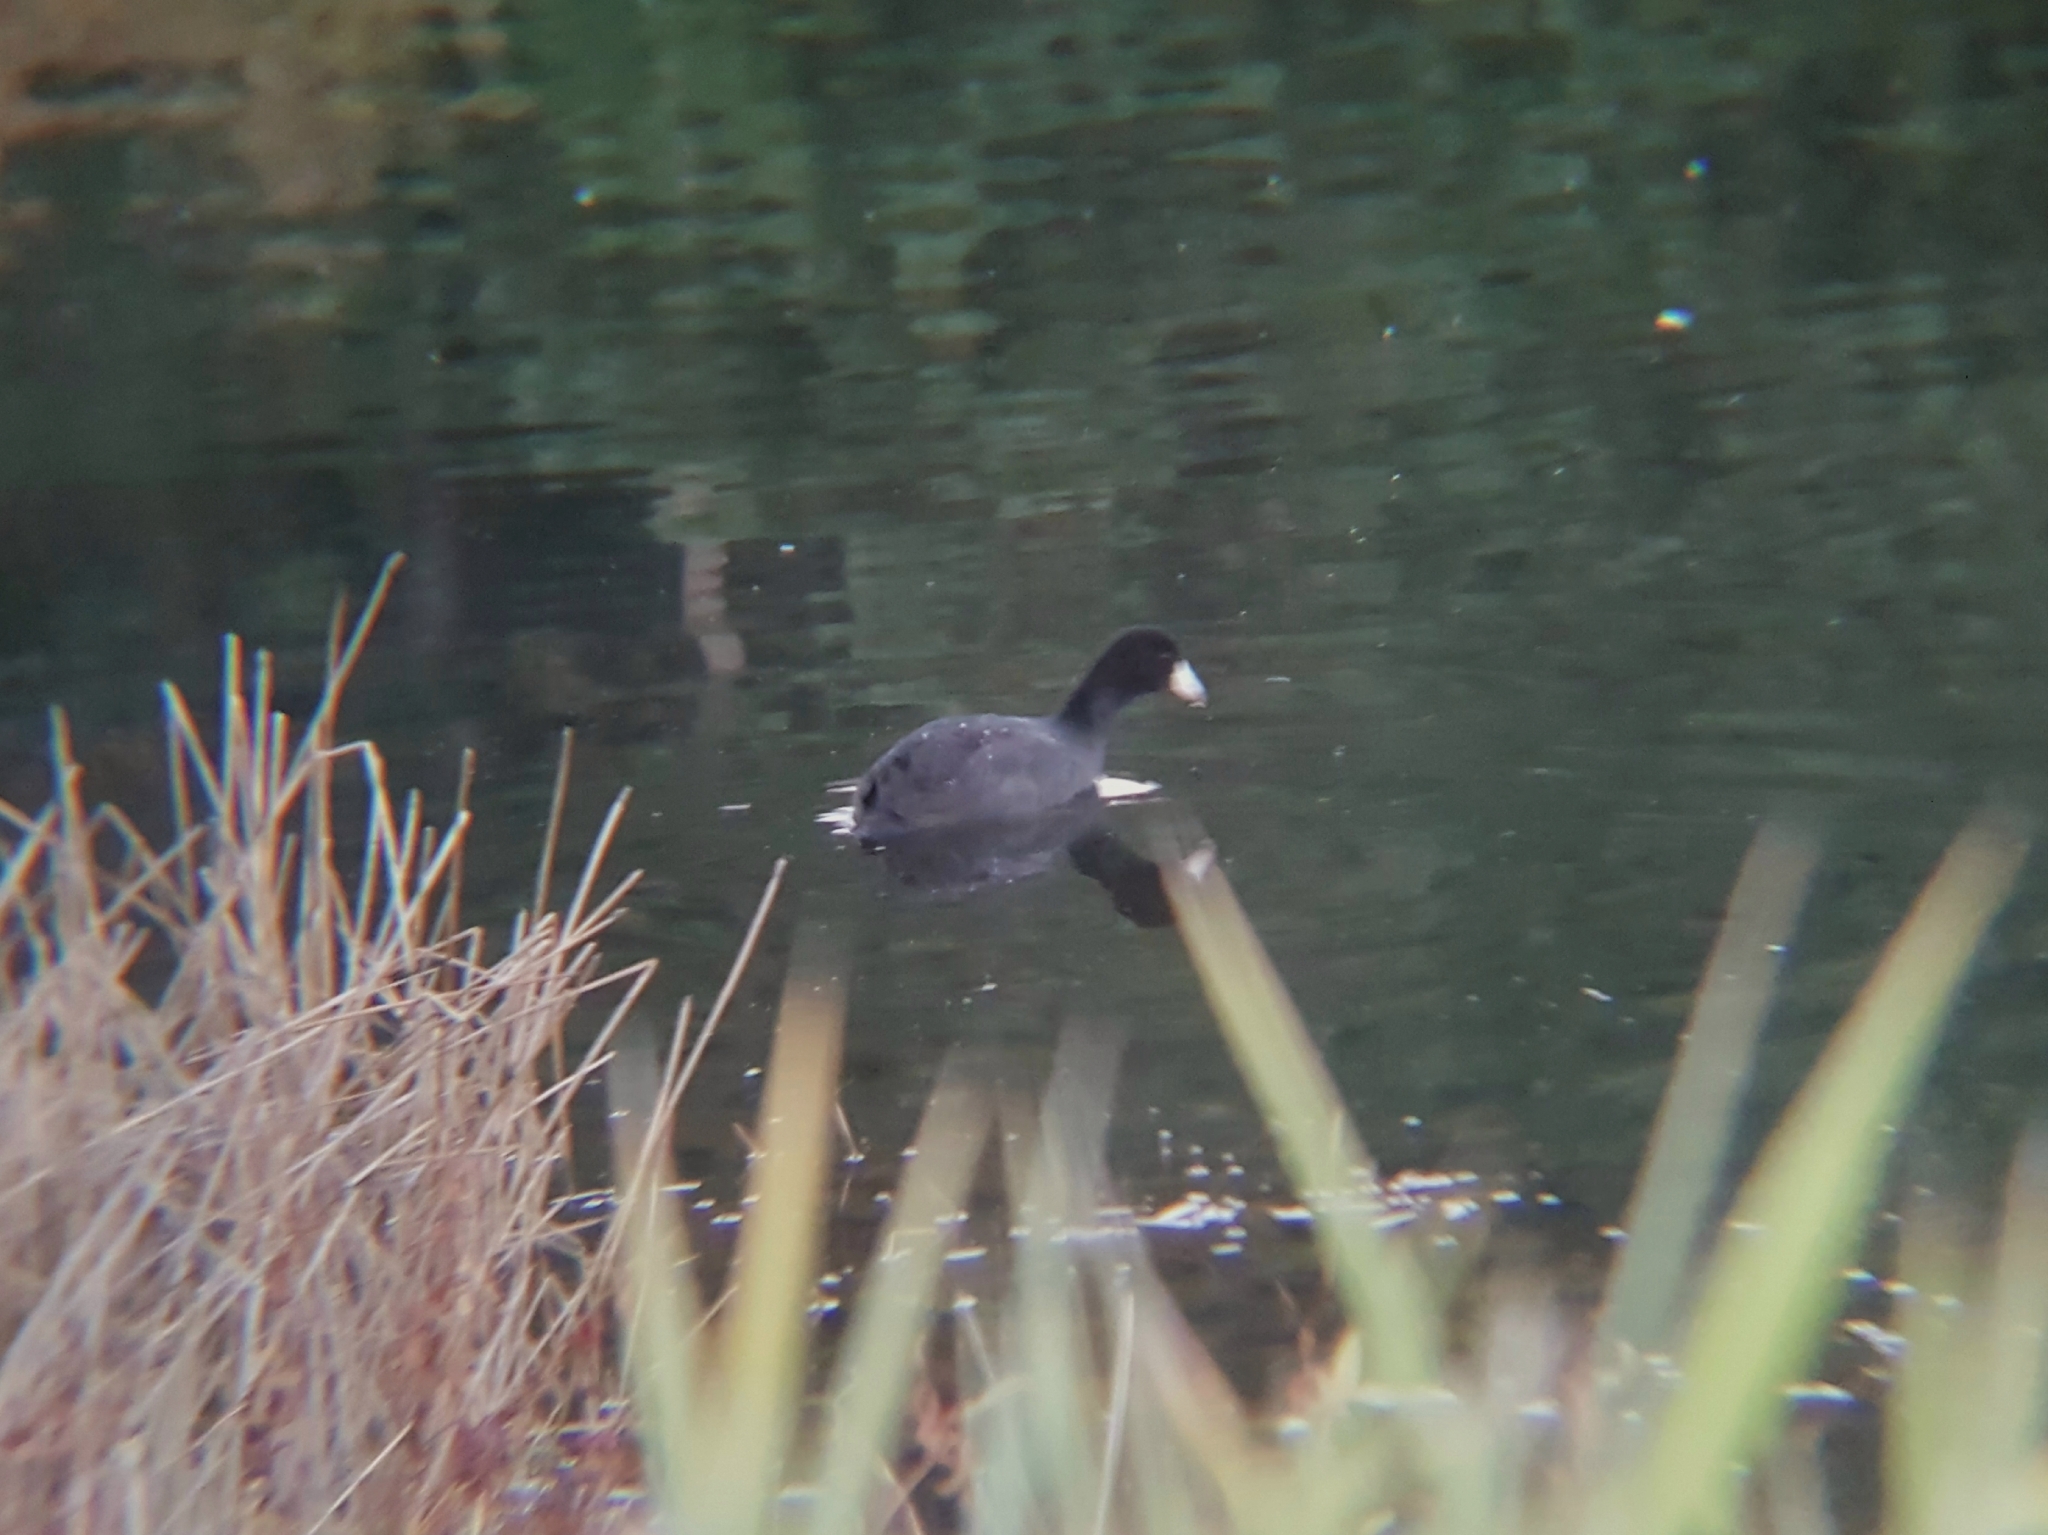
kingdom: Animalia
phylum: Chordata
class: Aves
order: Gruiformes
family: Rallidae
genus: Fulica
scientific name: Fulica americana
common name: American coot
